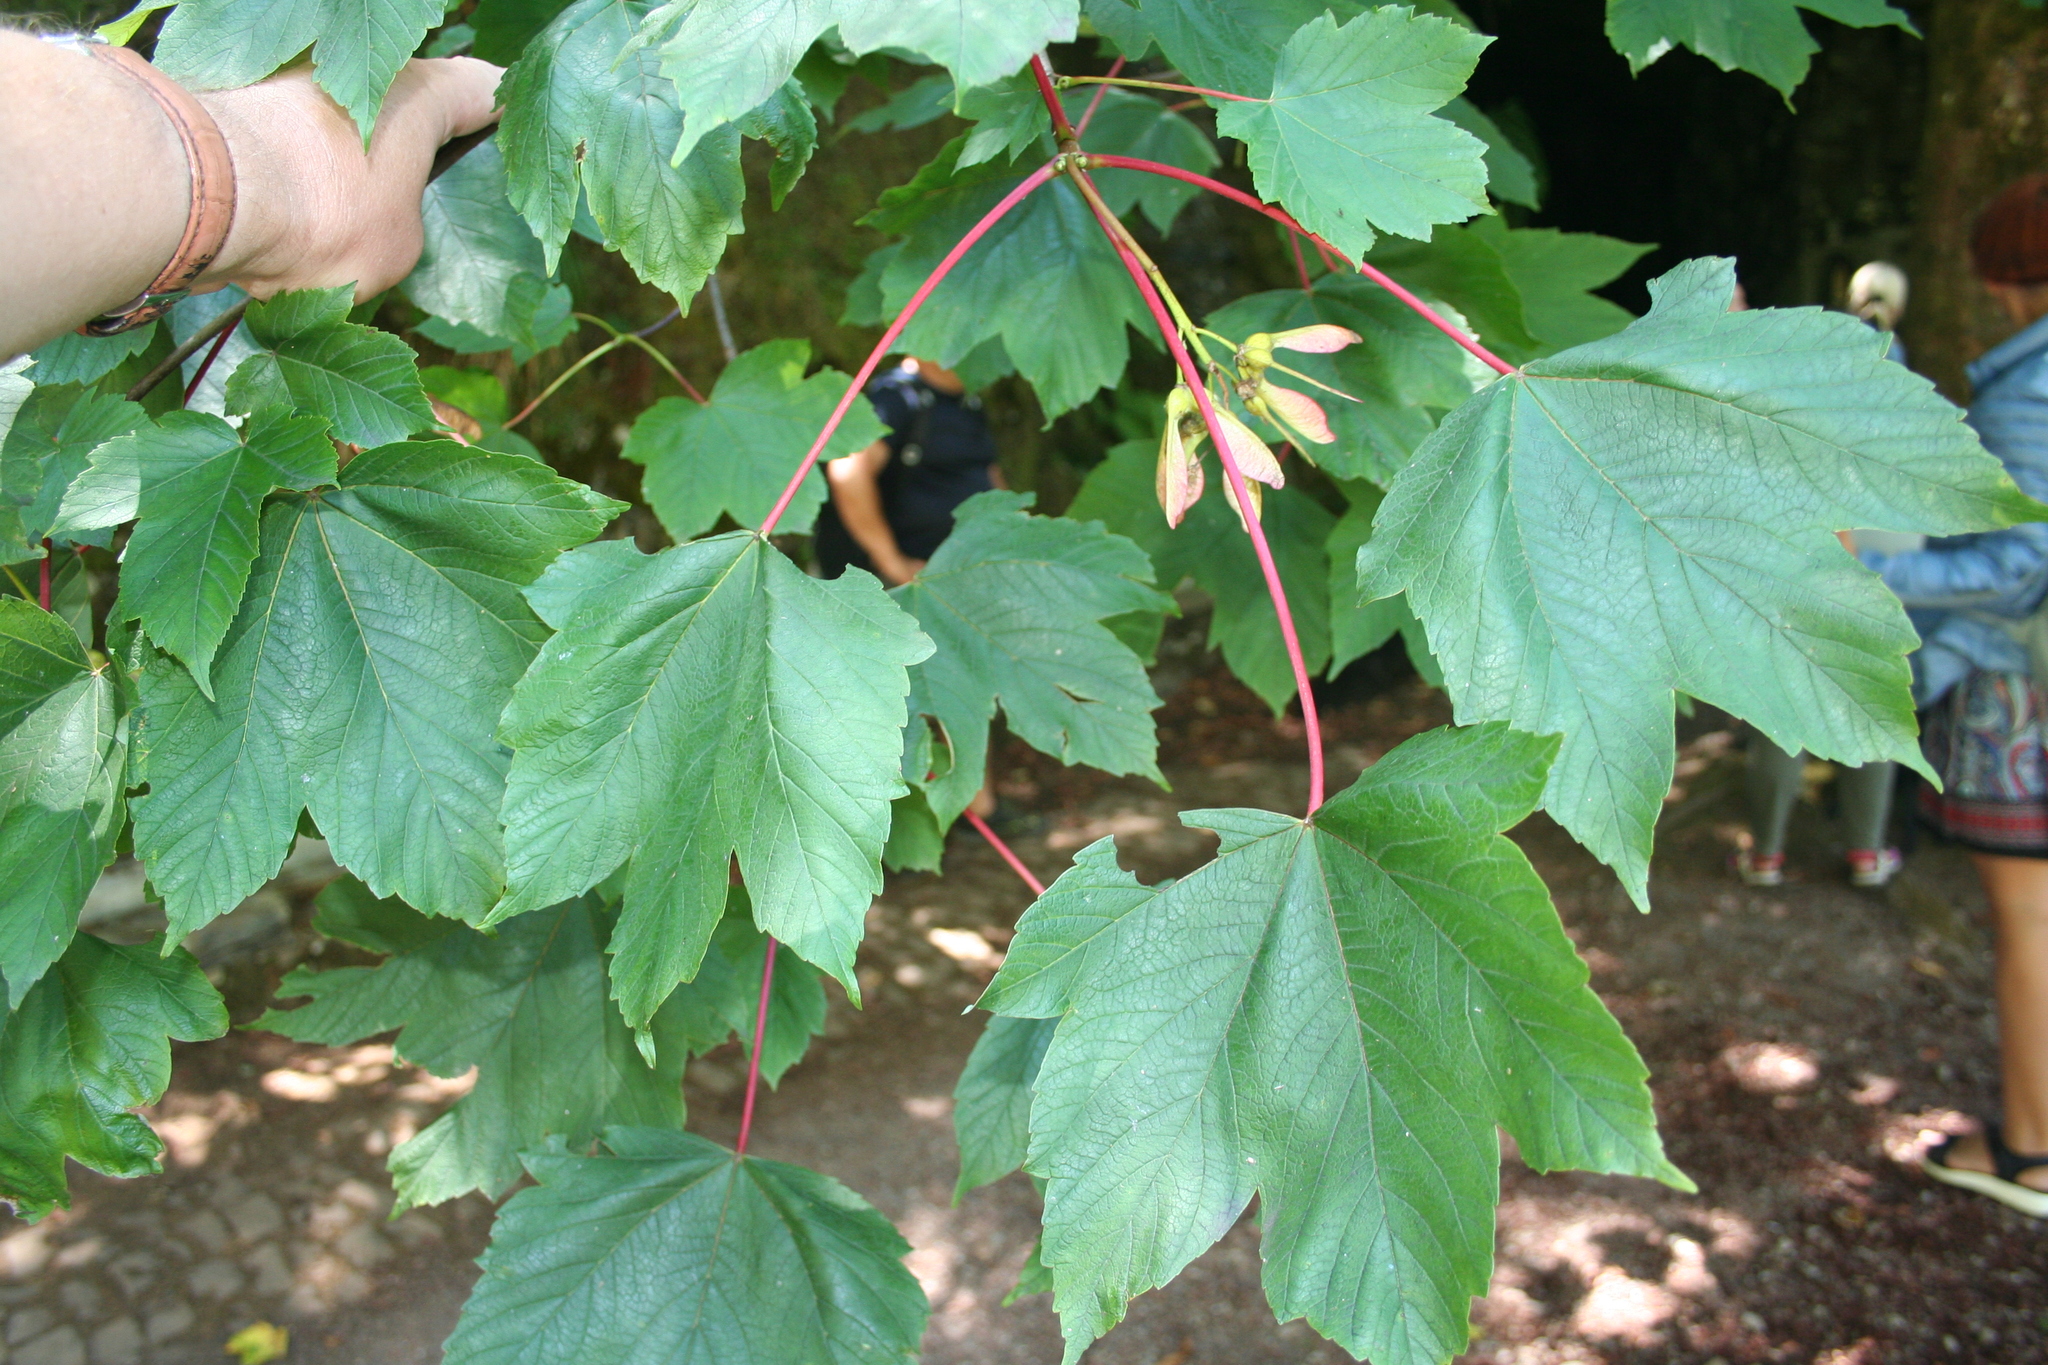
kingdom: Plantae
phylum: Tracheophyta
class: Magnoliopsida
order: Sapindales
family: Sapindaceae
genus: Acer
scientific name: Acer pseudoplatanus
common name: Sycamore
